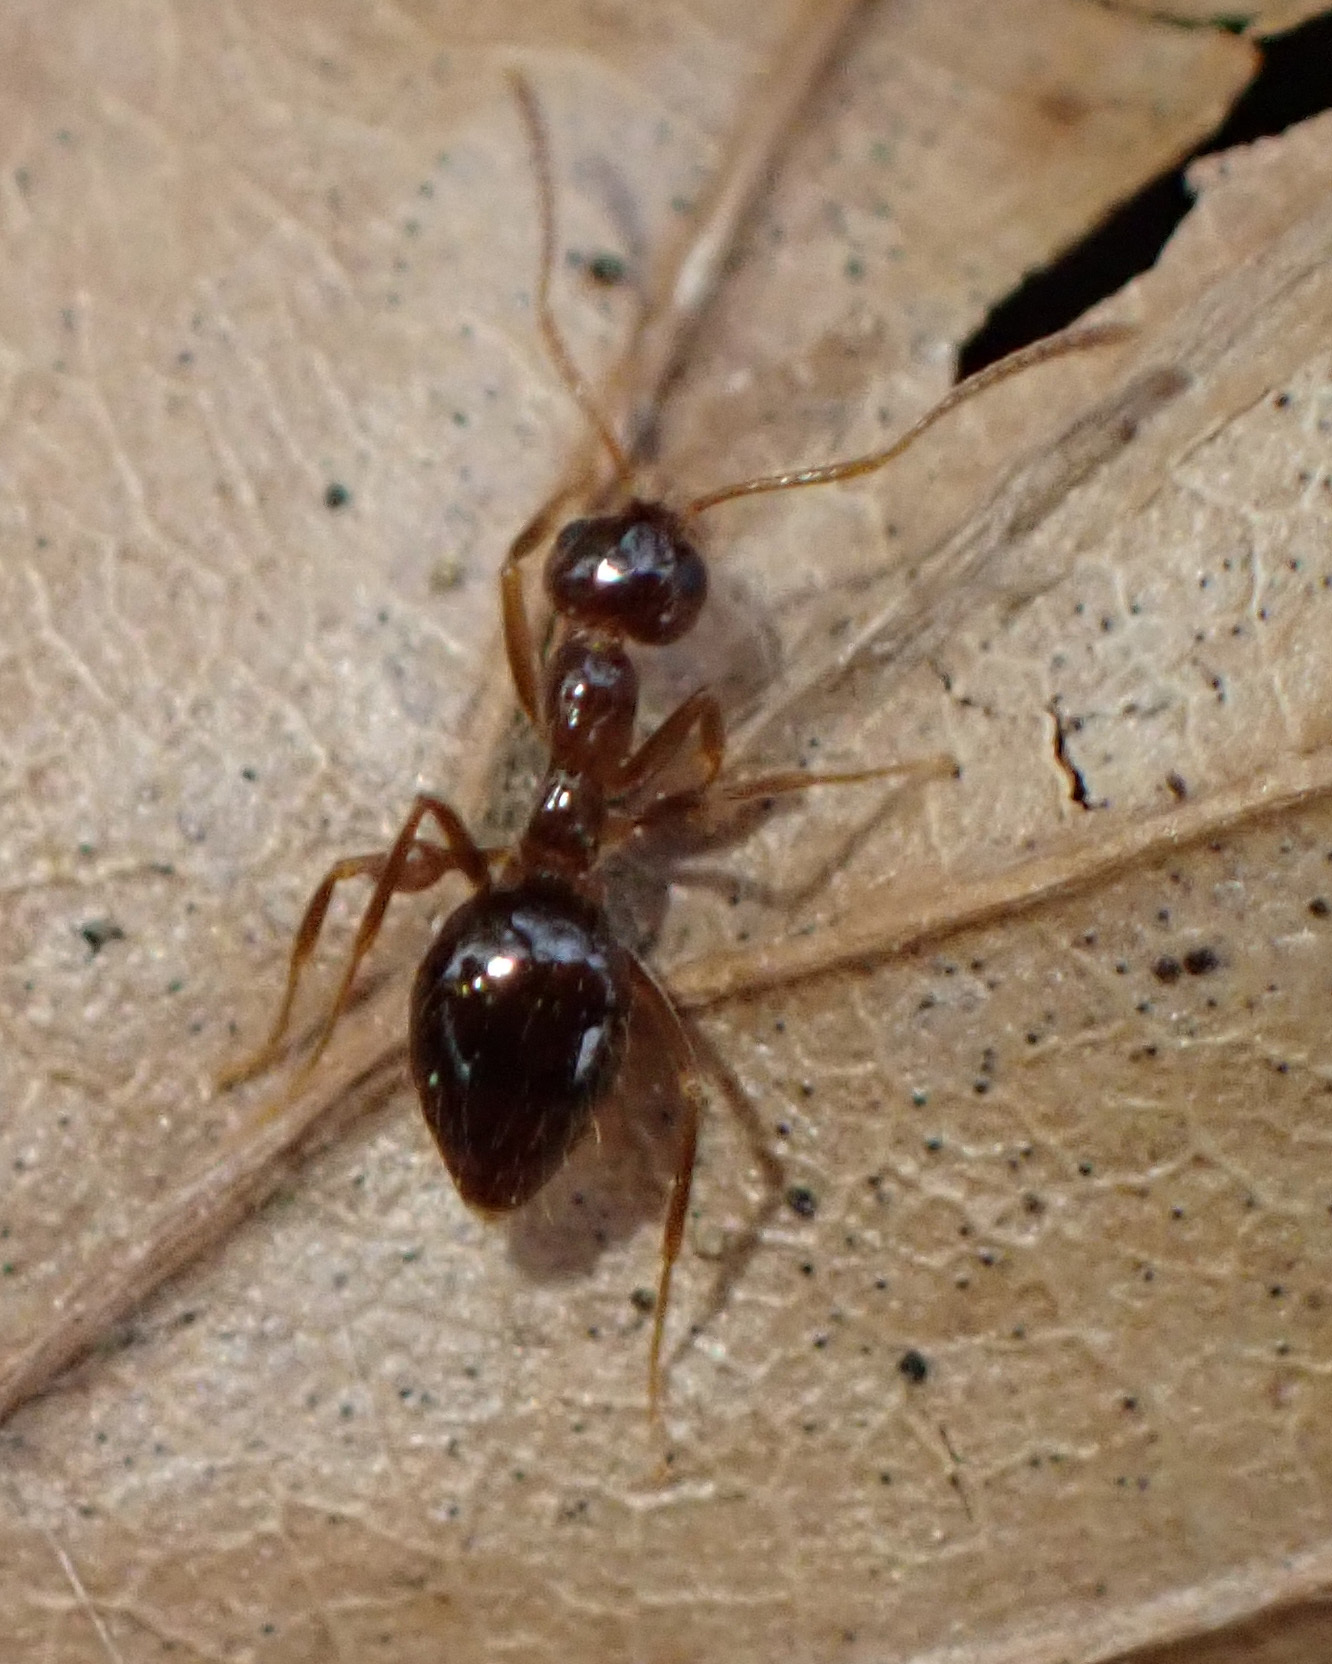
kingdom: Animalia
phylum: Arthropoda
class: Insecta
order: Hymenoptera
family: Formicidae
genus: Prenolepis
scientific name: Prenolepis nitens
